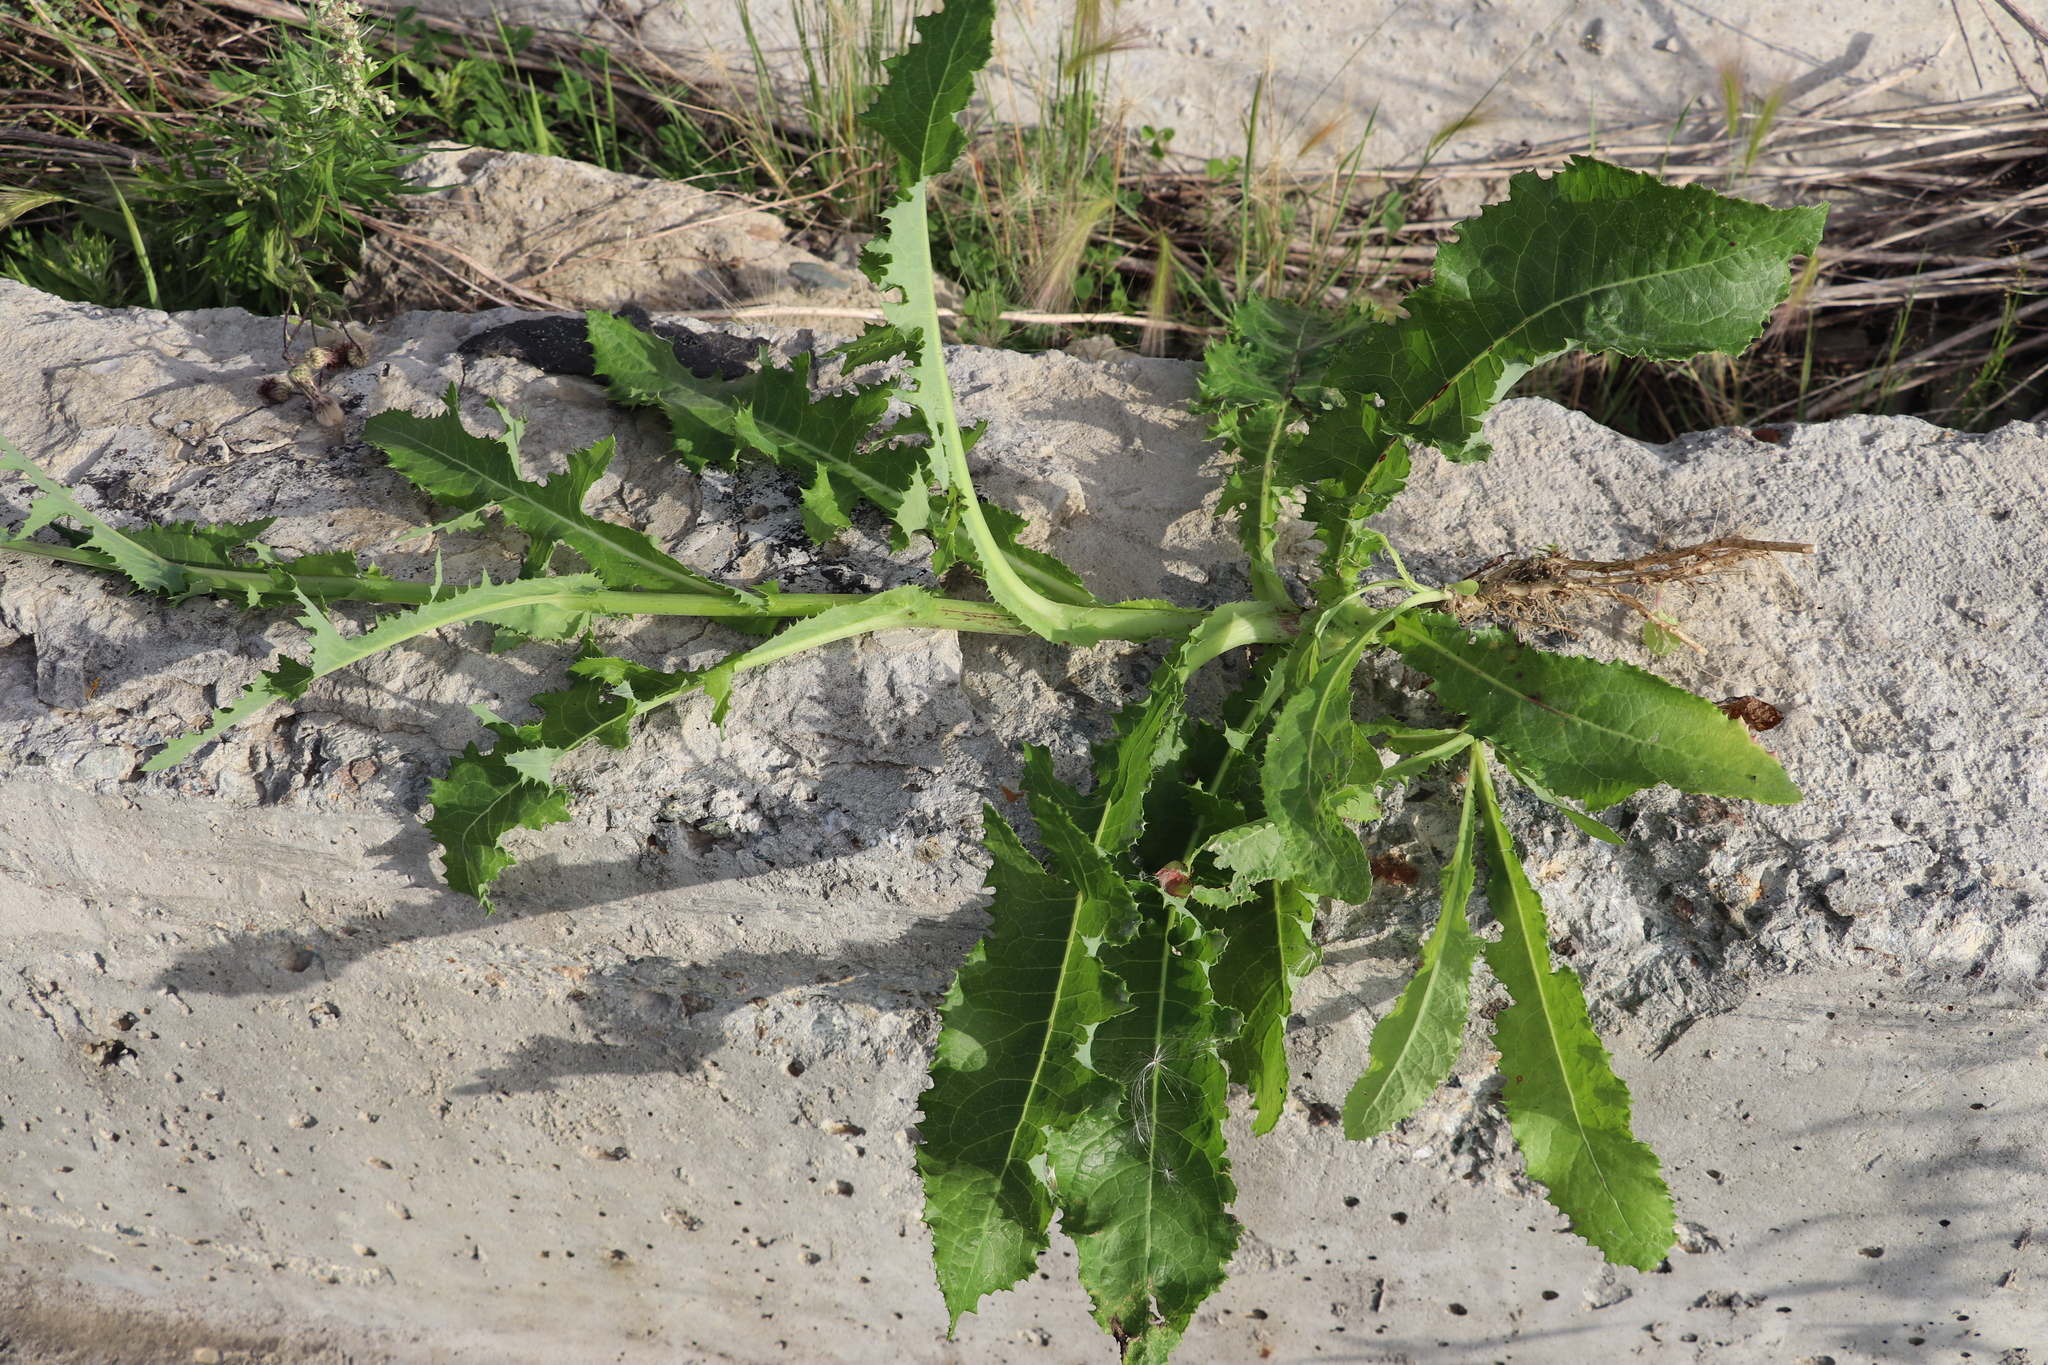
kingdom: Plantae
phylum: Tracheophyta
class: Magnoliopsida
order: Asterales
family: Asteraceae
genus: Sonchus
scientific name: Sonchus arvensis
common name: Perennial sow-thistle
